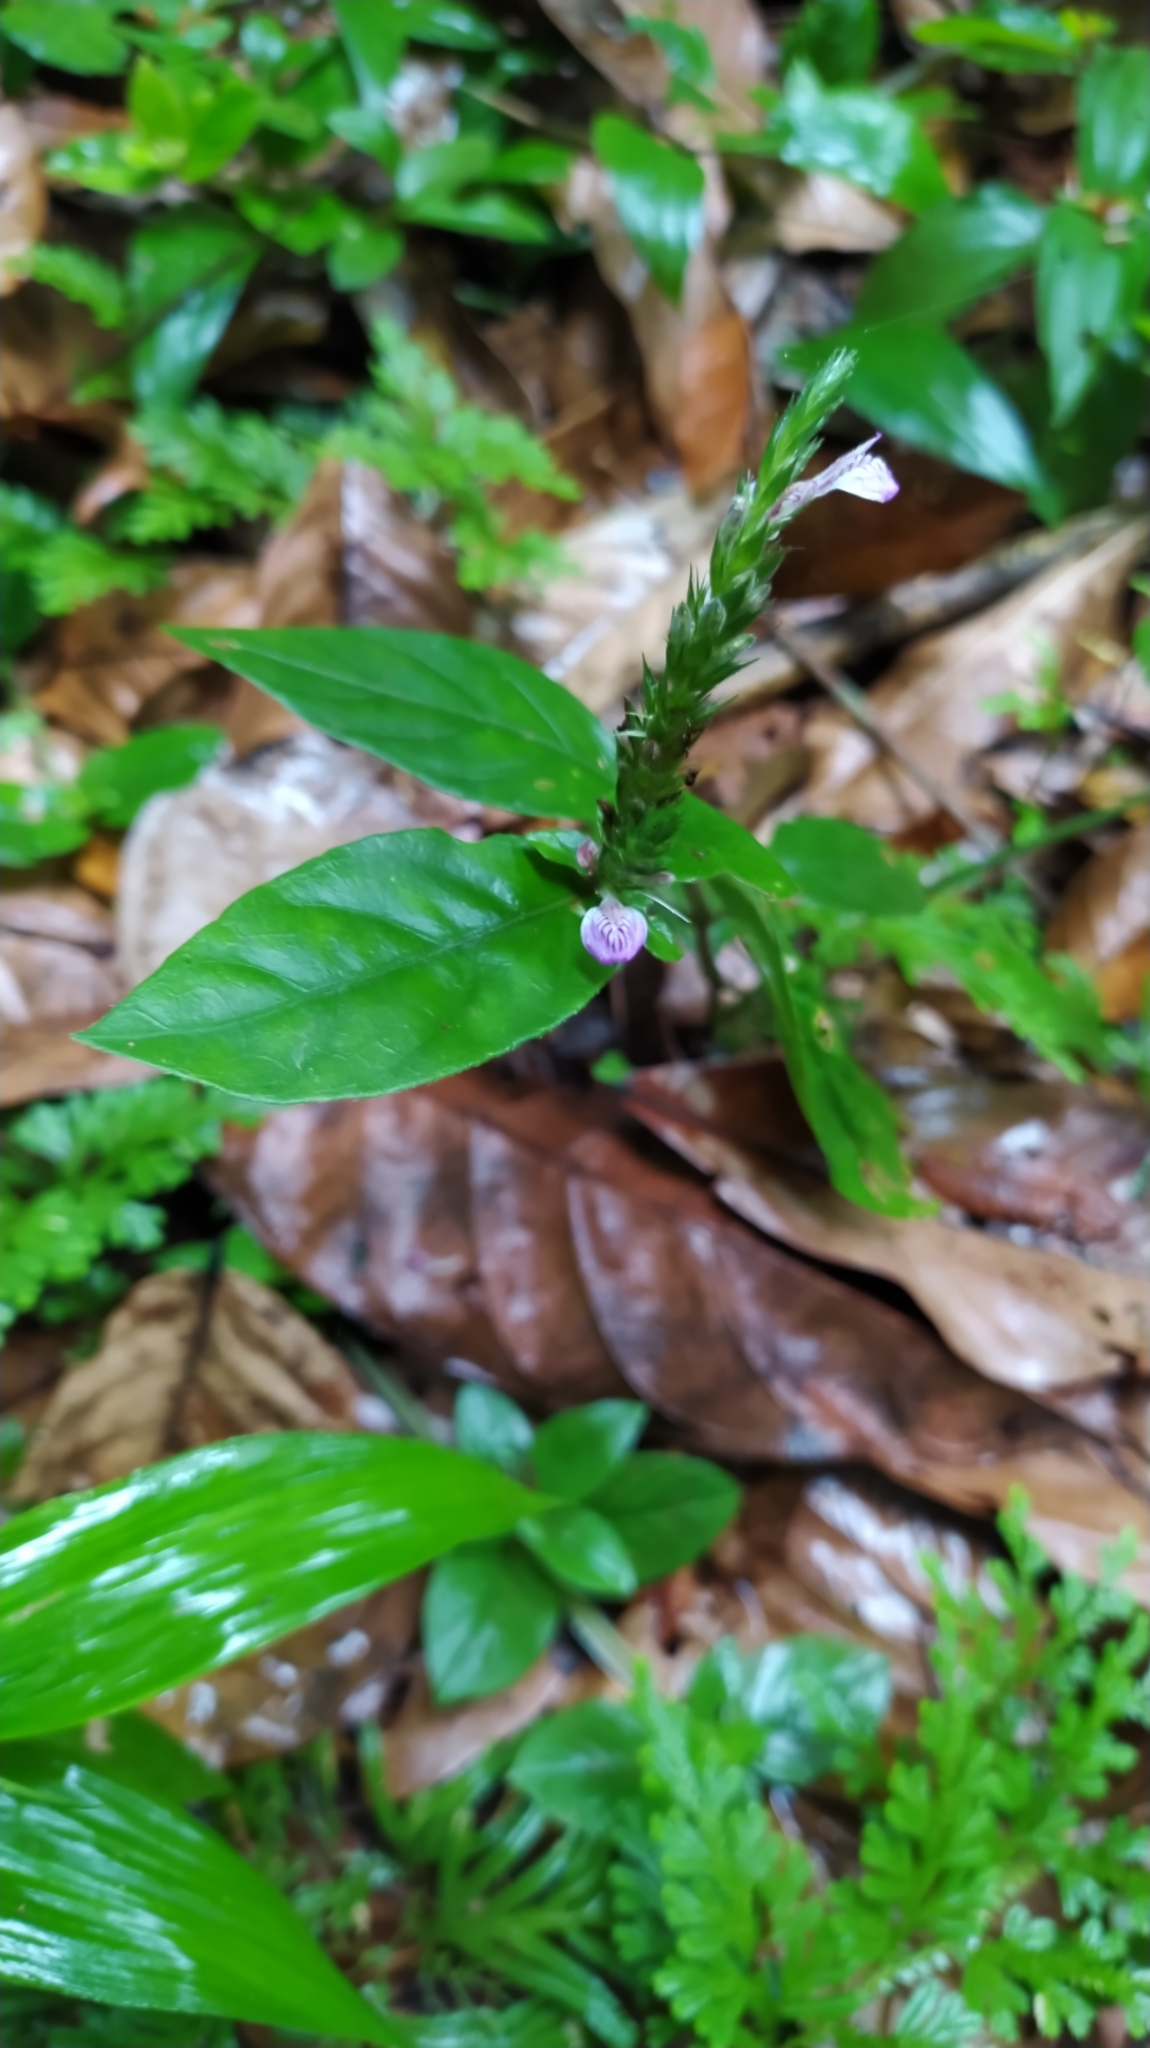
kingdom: Plantae
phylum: Tracheophyta
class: Magnoliopsida
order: Lamiales
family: Acanthaceae
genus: Dianthera
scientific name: Dianthera cayennensis
